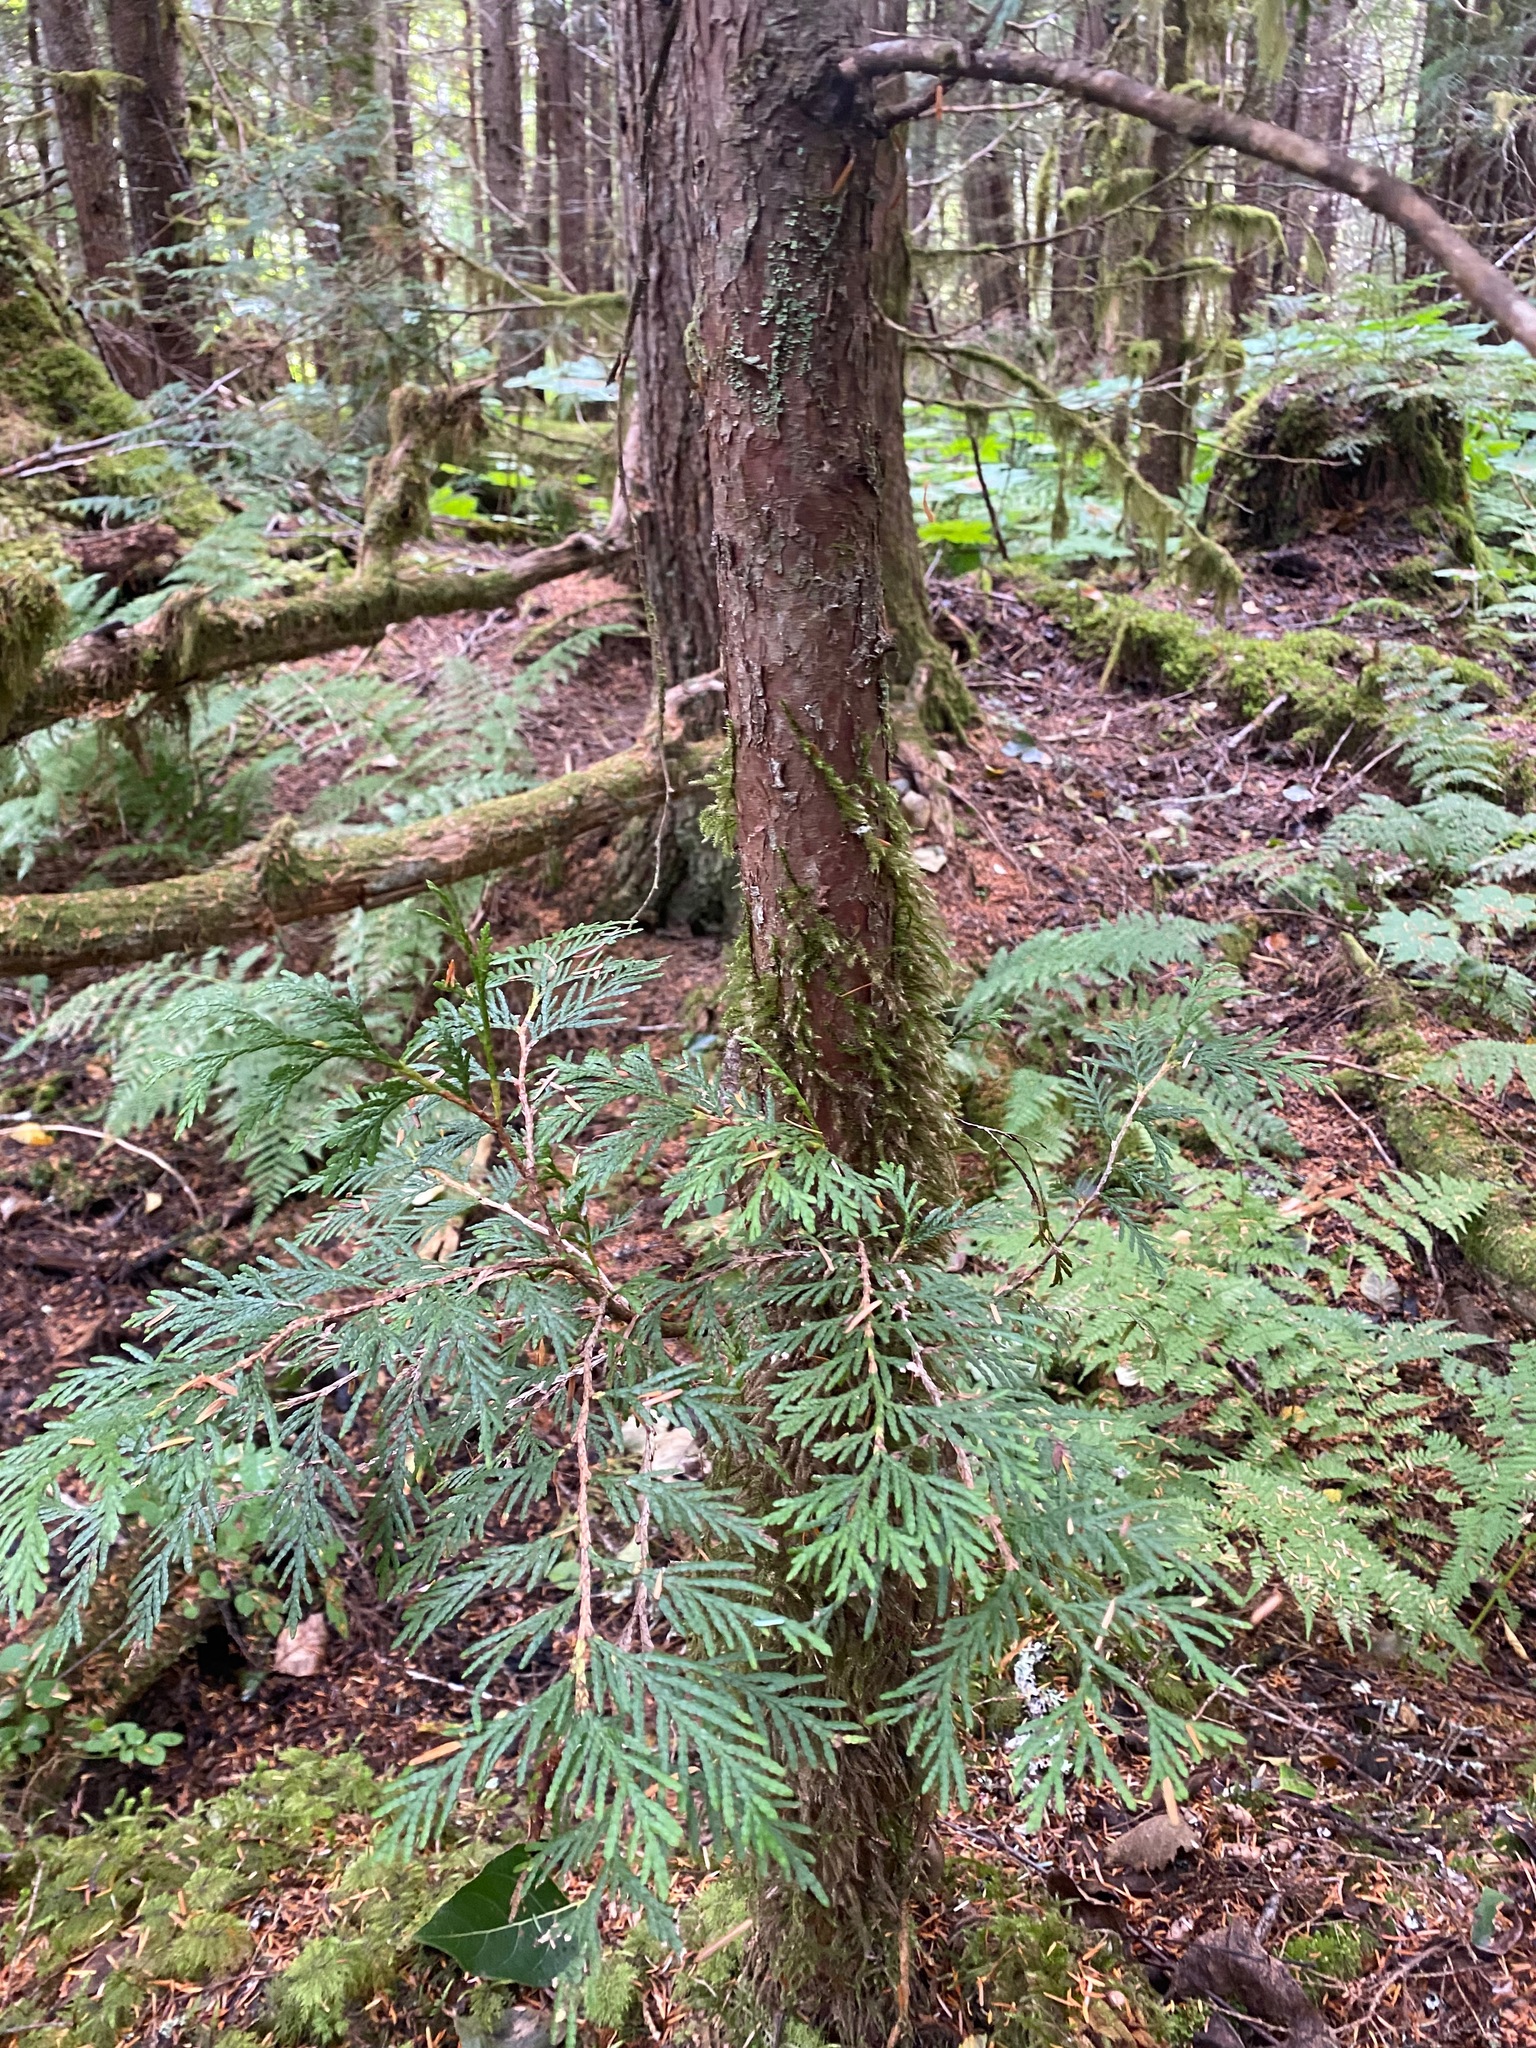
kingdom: Plantae
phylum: Tracheophyta
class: Pinopsida
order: Pinales
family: Cupressaceae
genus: Thuja
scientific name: Thuja plicata
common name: Western red-cedar
